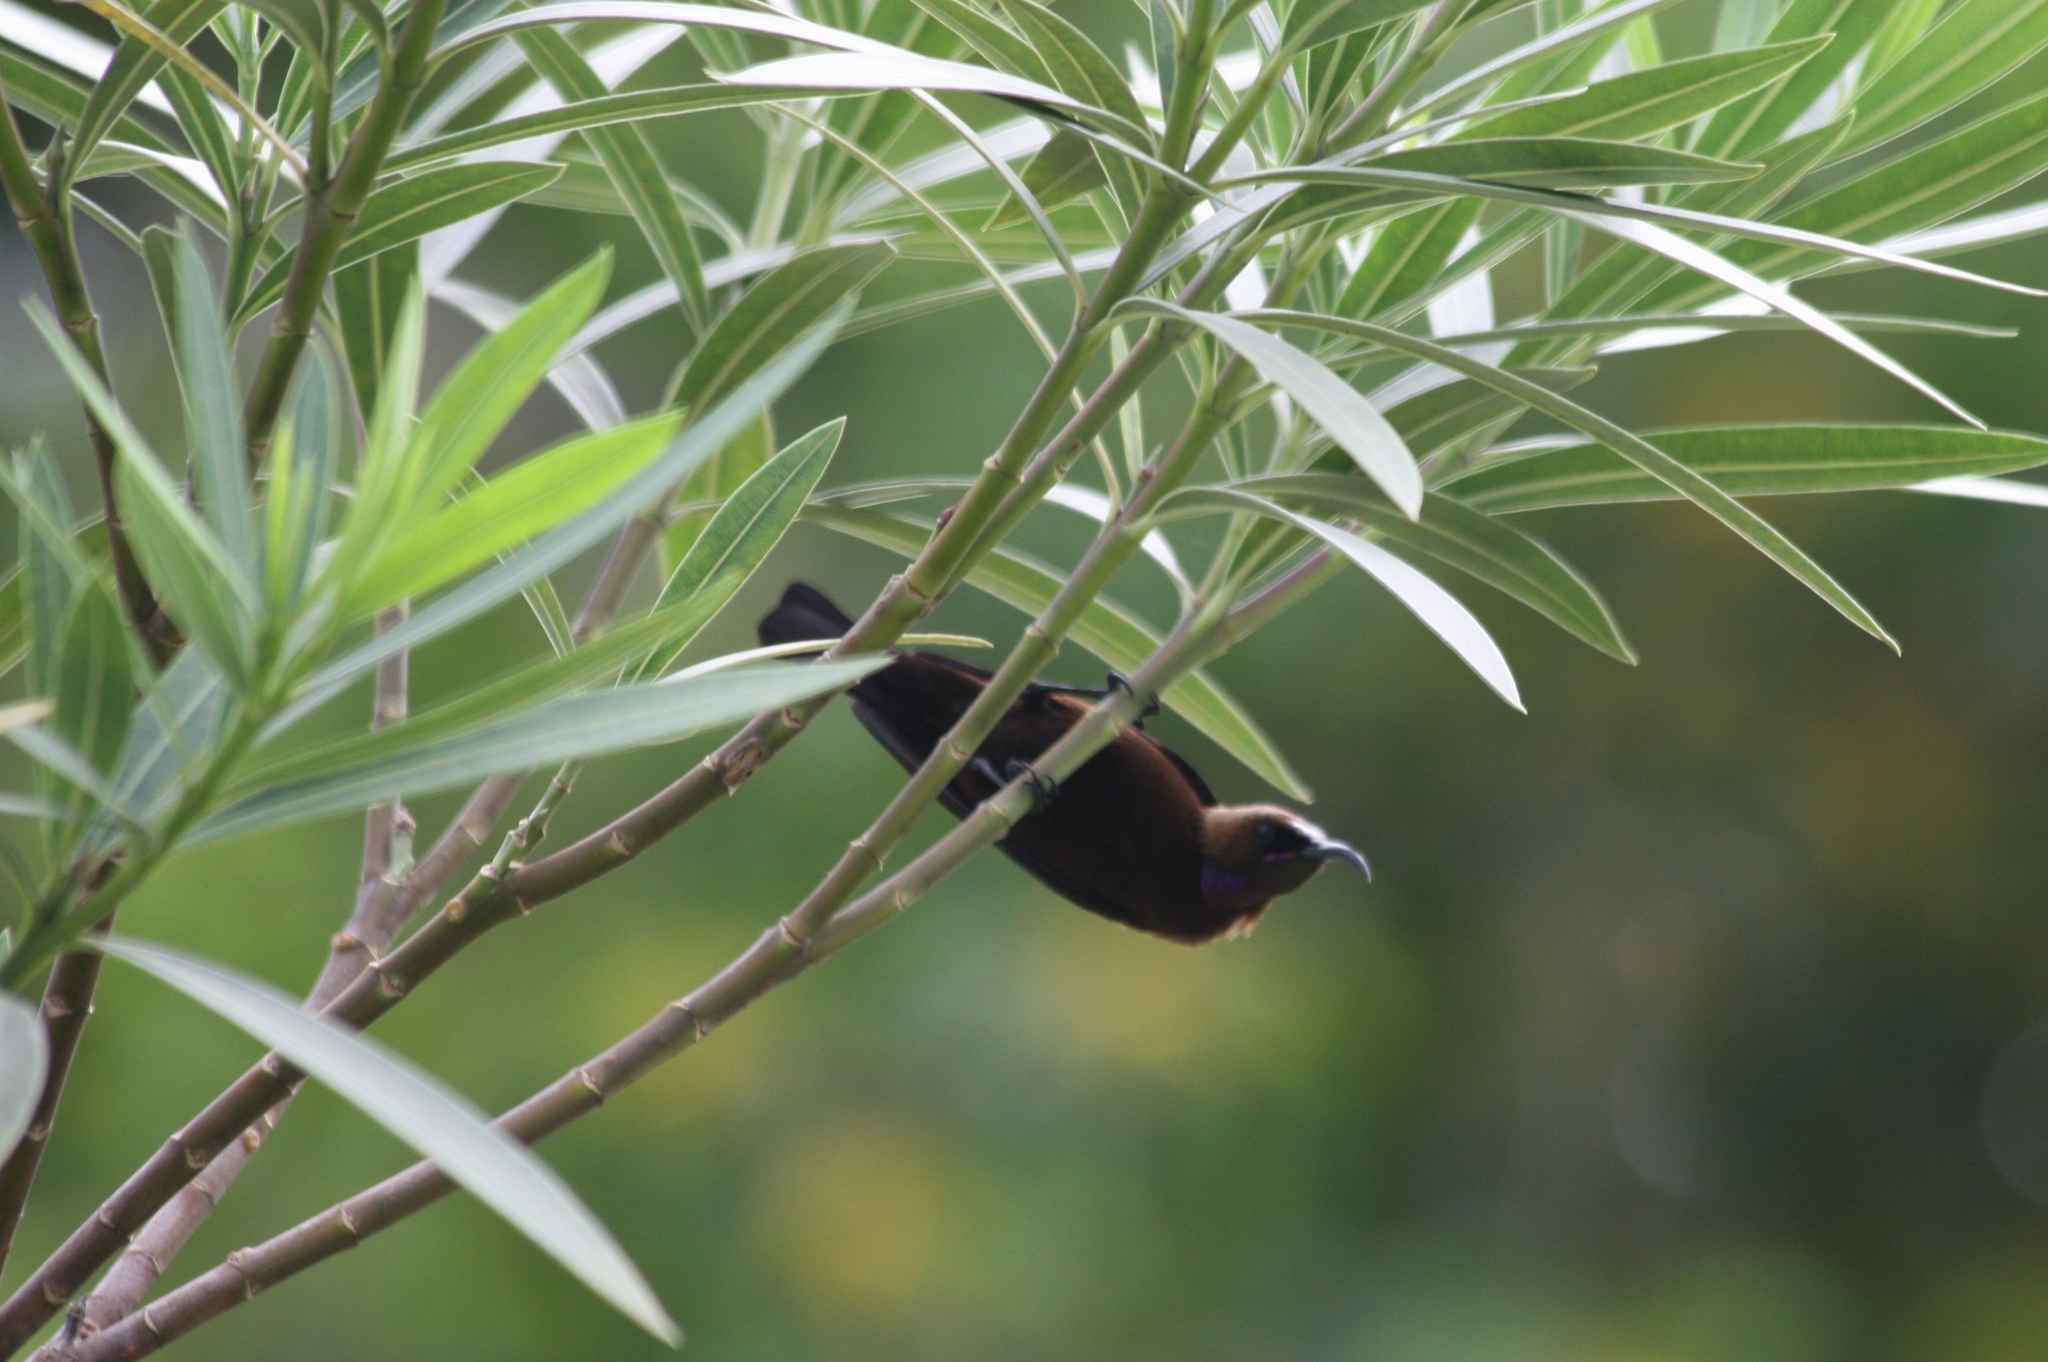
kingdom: Animalia
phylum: Chordata
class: Aves
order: Passeriformes
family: Nectariniidae
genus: Chalcomitra
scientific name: Chalcomitra fuliginosa
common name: Carmelite sunbird
